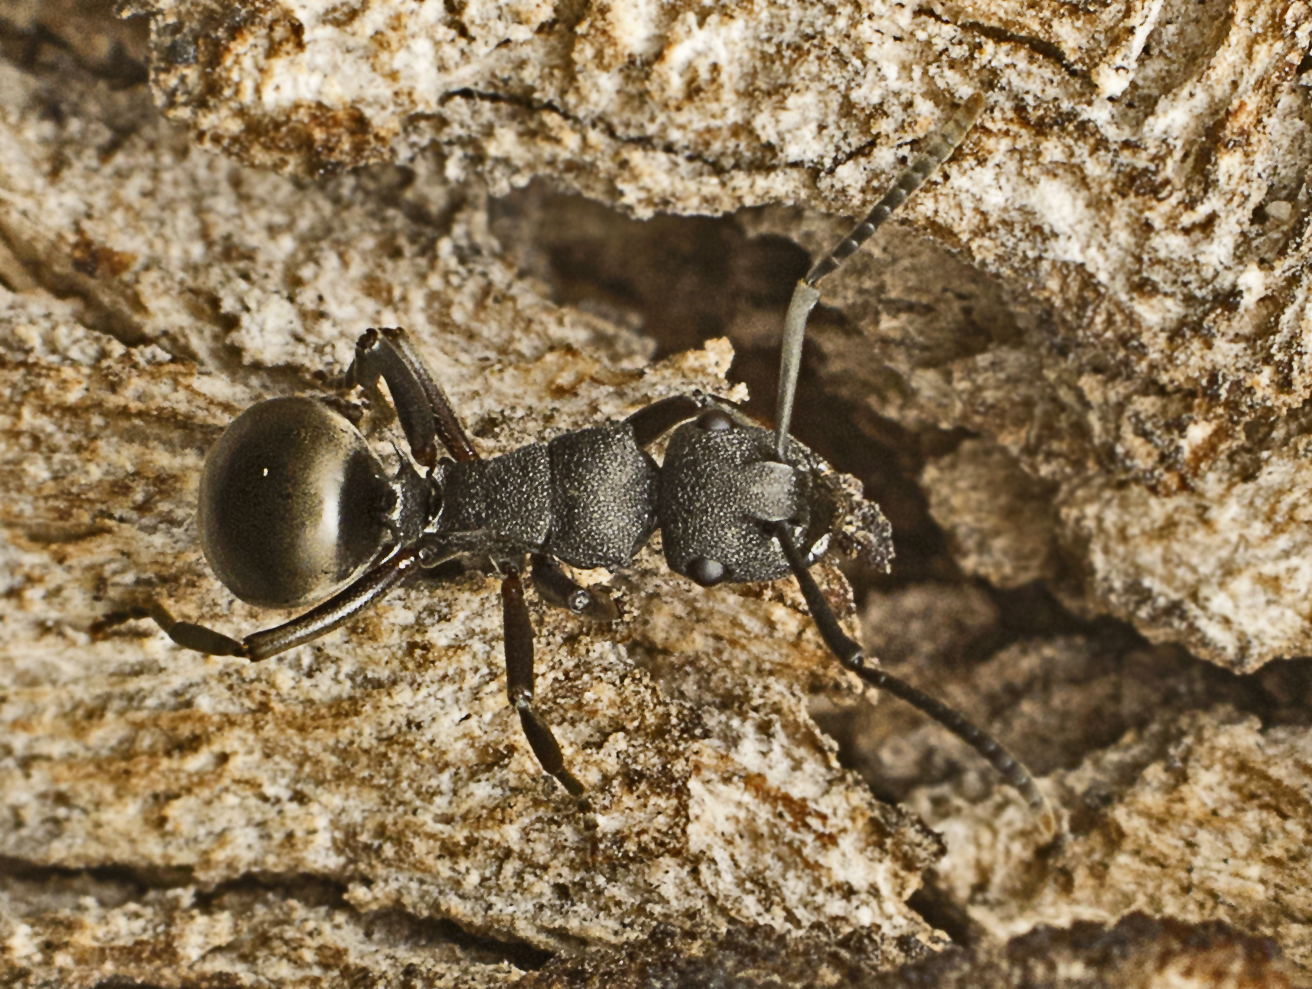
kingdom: Animalia
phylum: Arthropoda
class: Insecta
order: Hymenoptera
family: Formicidae
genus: Polyrhachis
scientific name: Polyrhachis phryne
